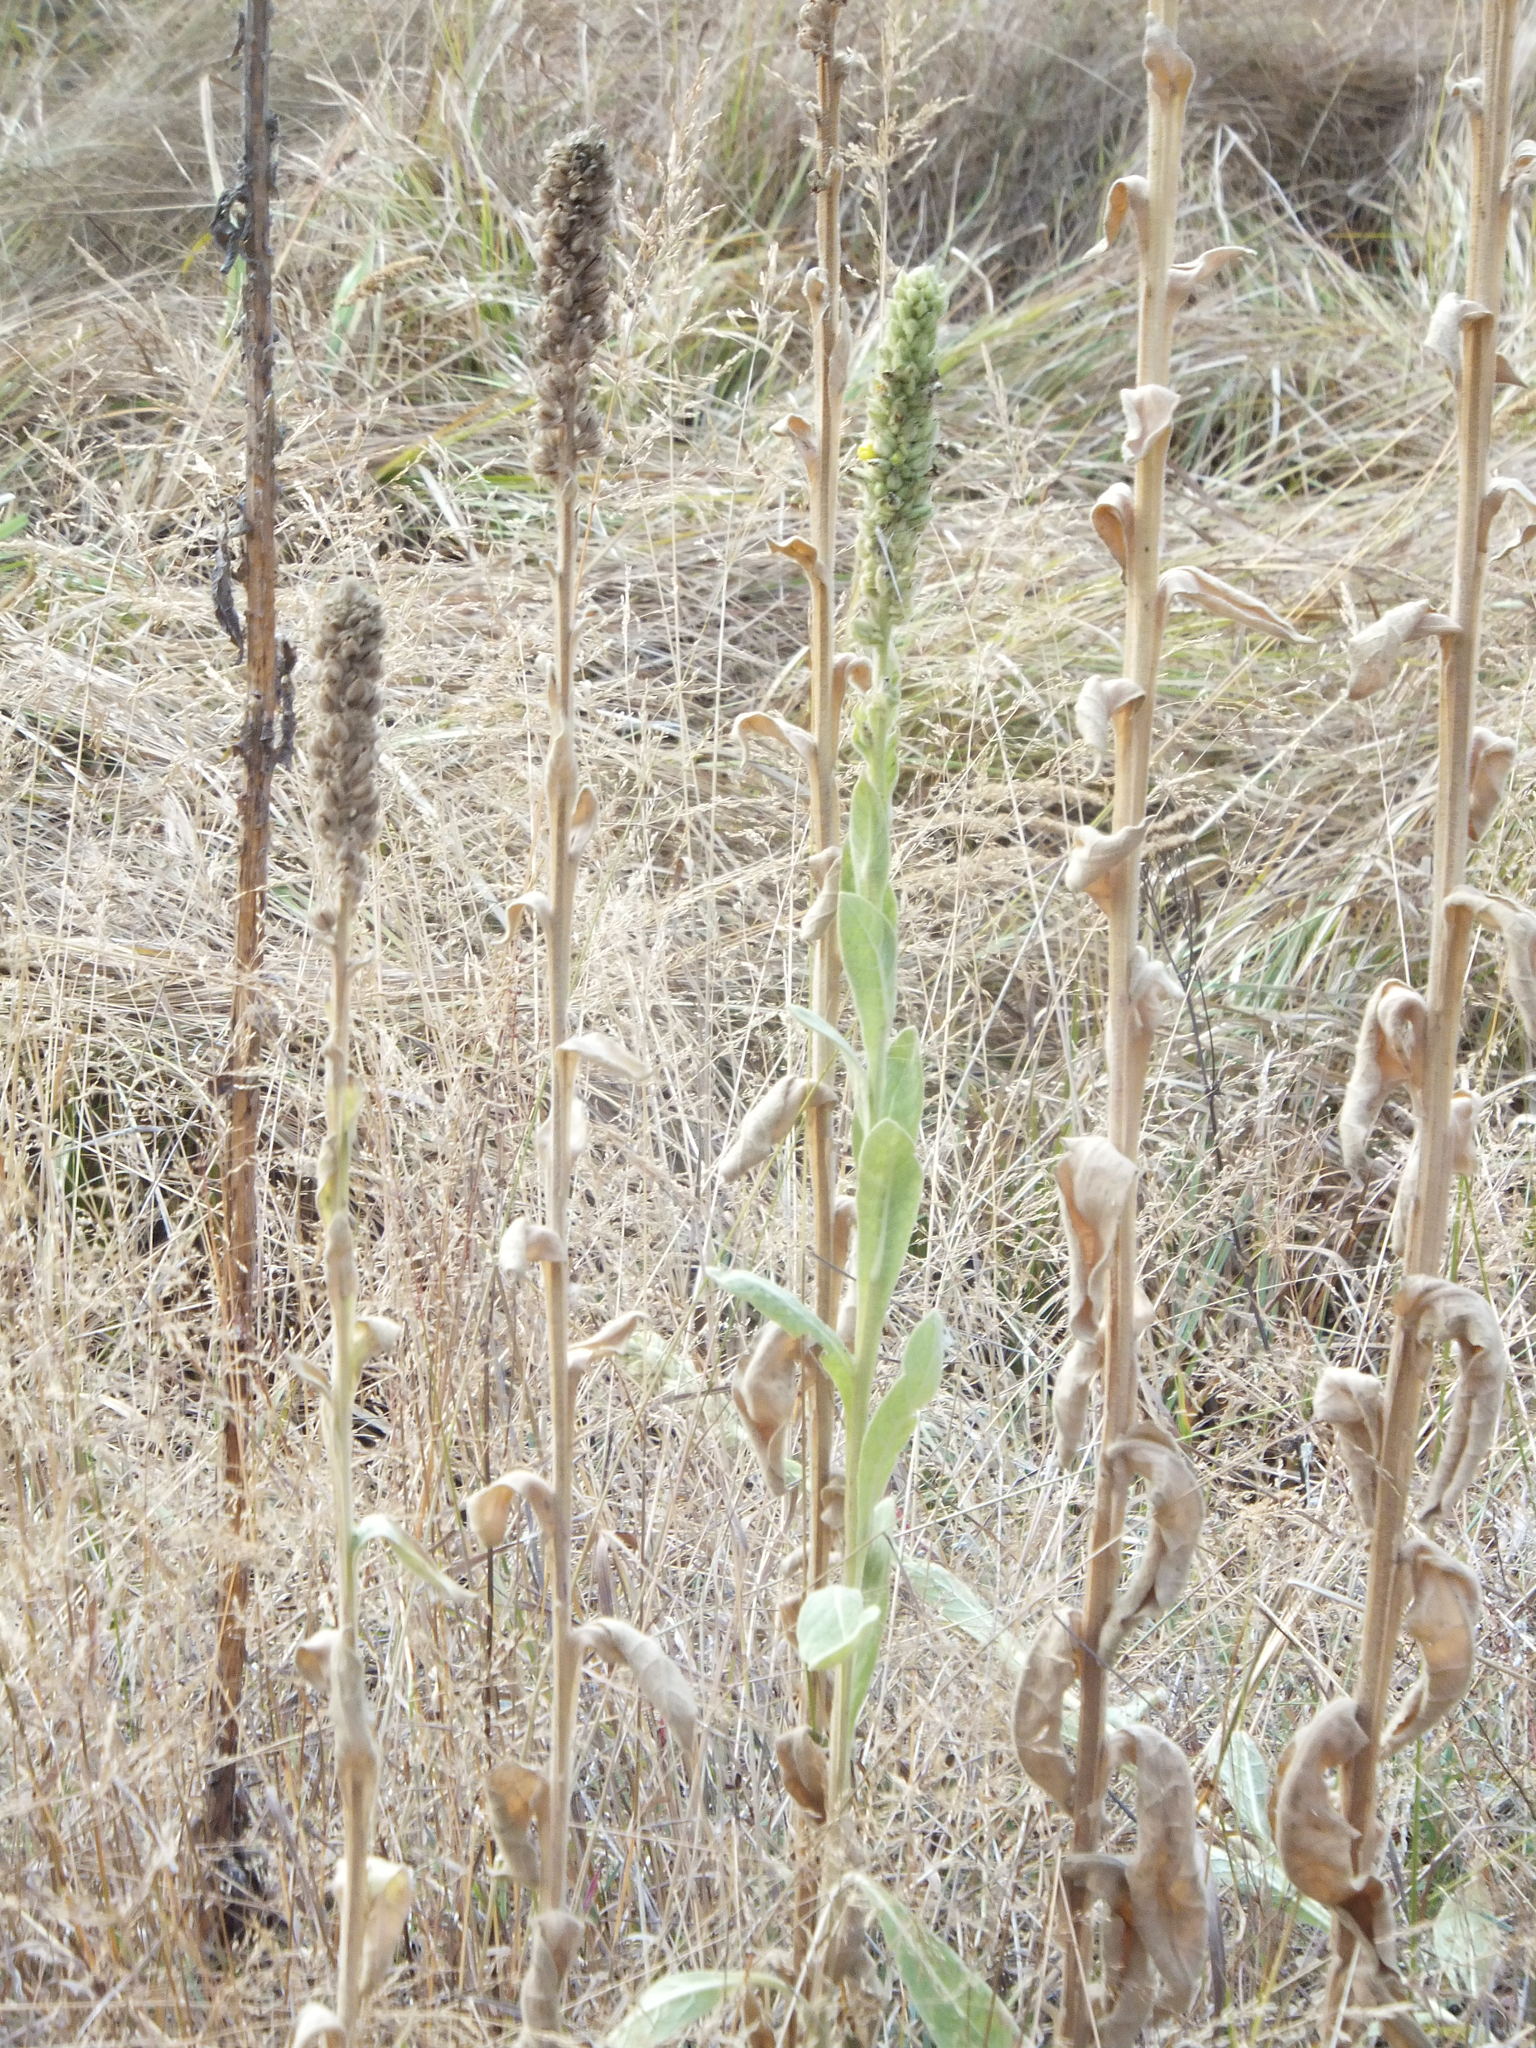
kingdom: Plantae
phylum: Tracheophyta
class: Magnoliopsida
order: Lamiales
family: Scrophulariaceae
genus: Verbascum
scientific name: Verbascum thapsus
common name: Common mullein
